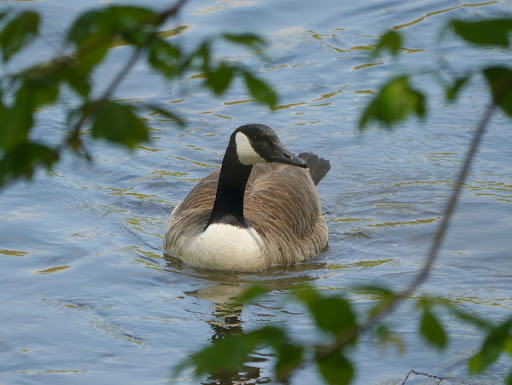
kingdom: Animalia
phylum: Chordata
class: Aves
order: Anseriformes
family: Anatidae
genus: Branta
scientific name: Branta canadensis
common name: Canada goose
